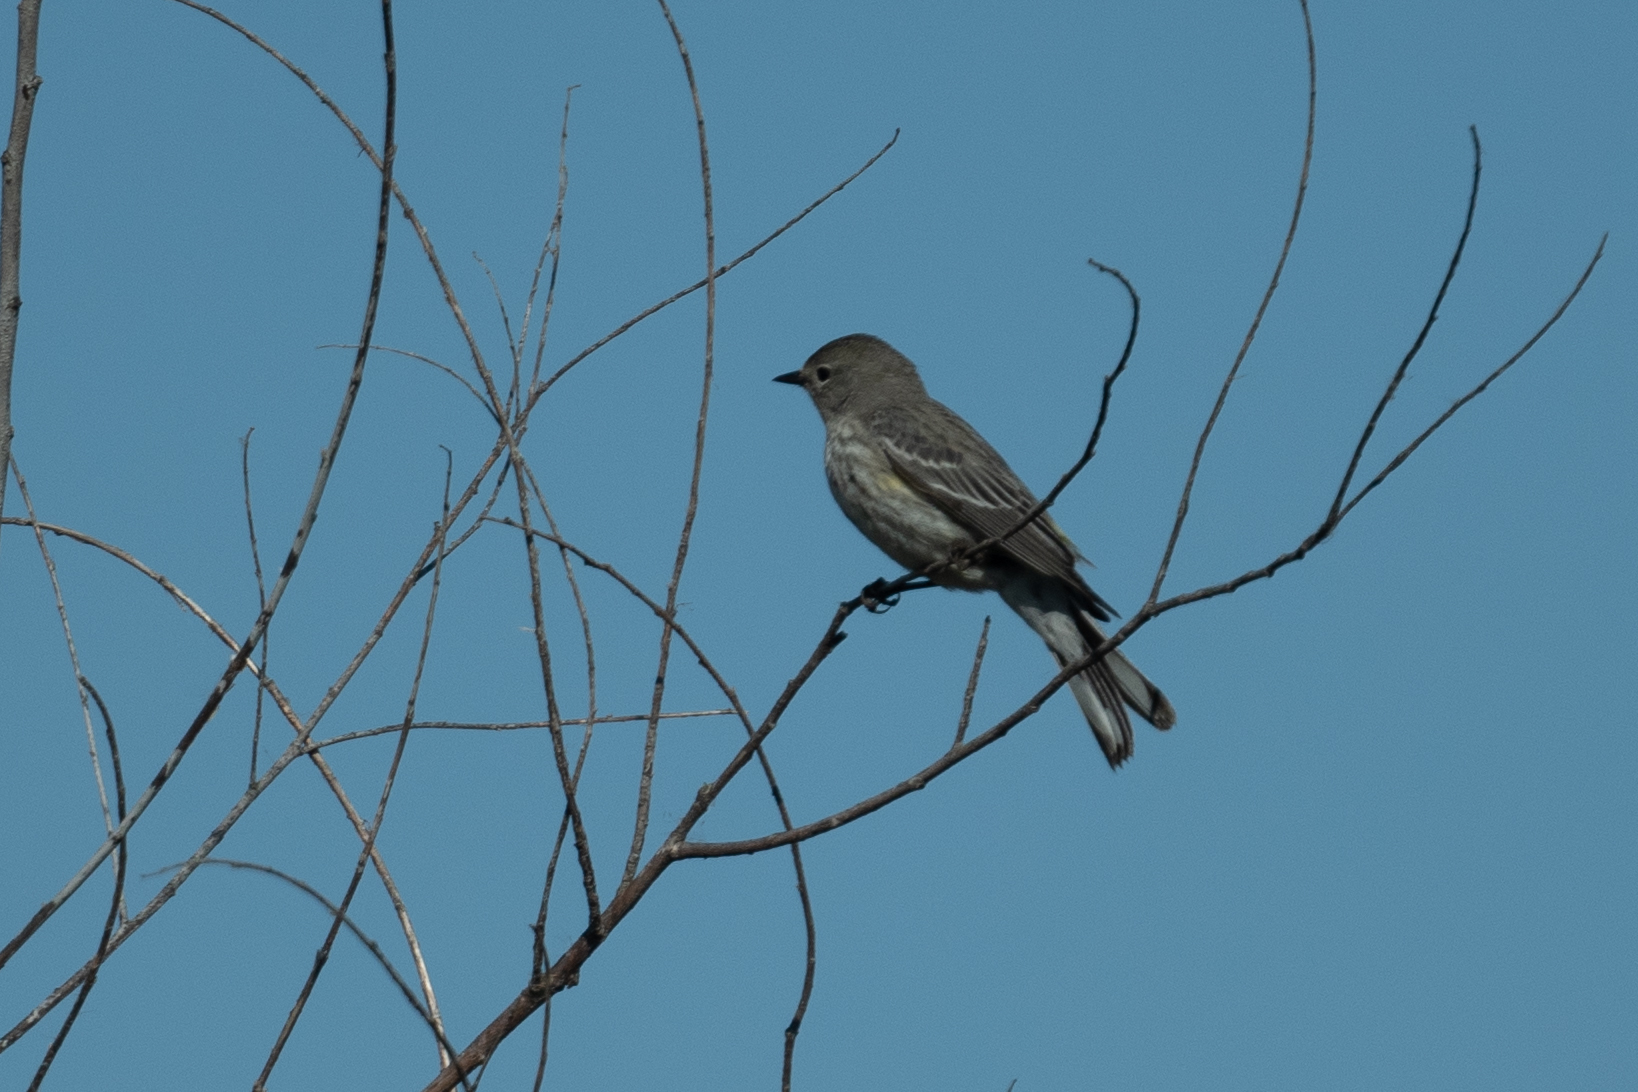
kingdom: Animalia
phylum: Chordata
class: Aves
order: Passeriformes
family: Parulidae
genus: Setophaga
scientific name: Setophaga coronata
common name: Myrtle warbler
